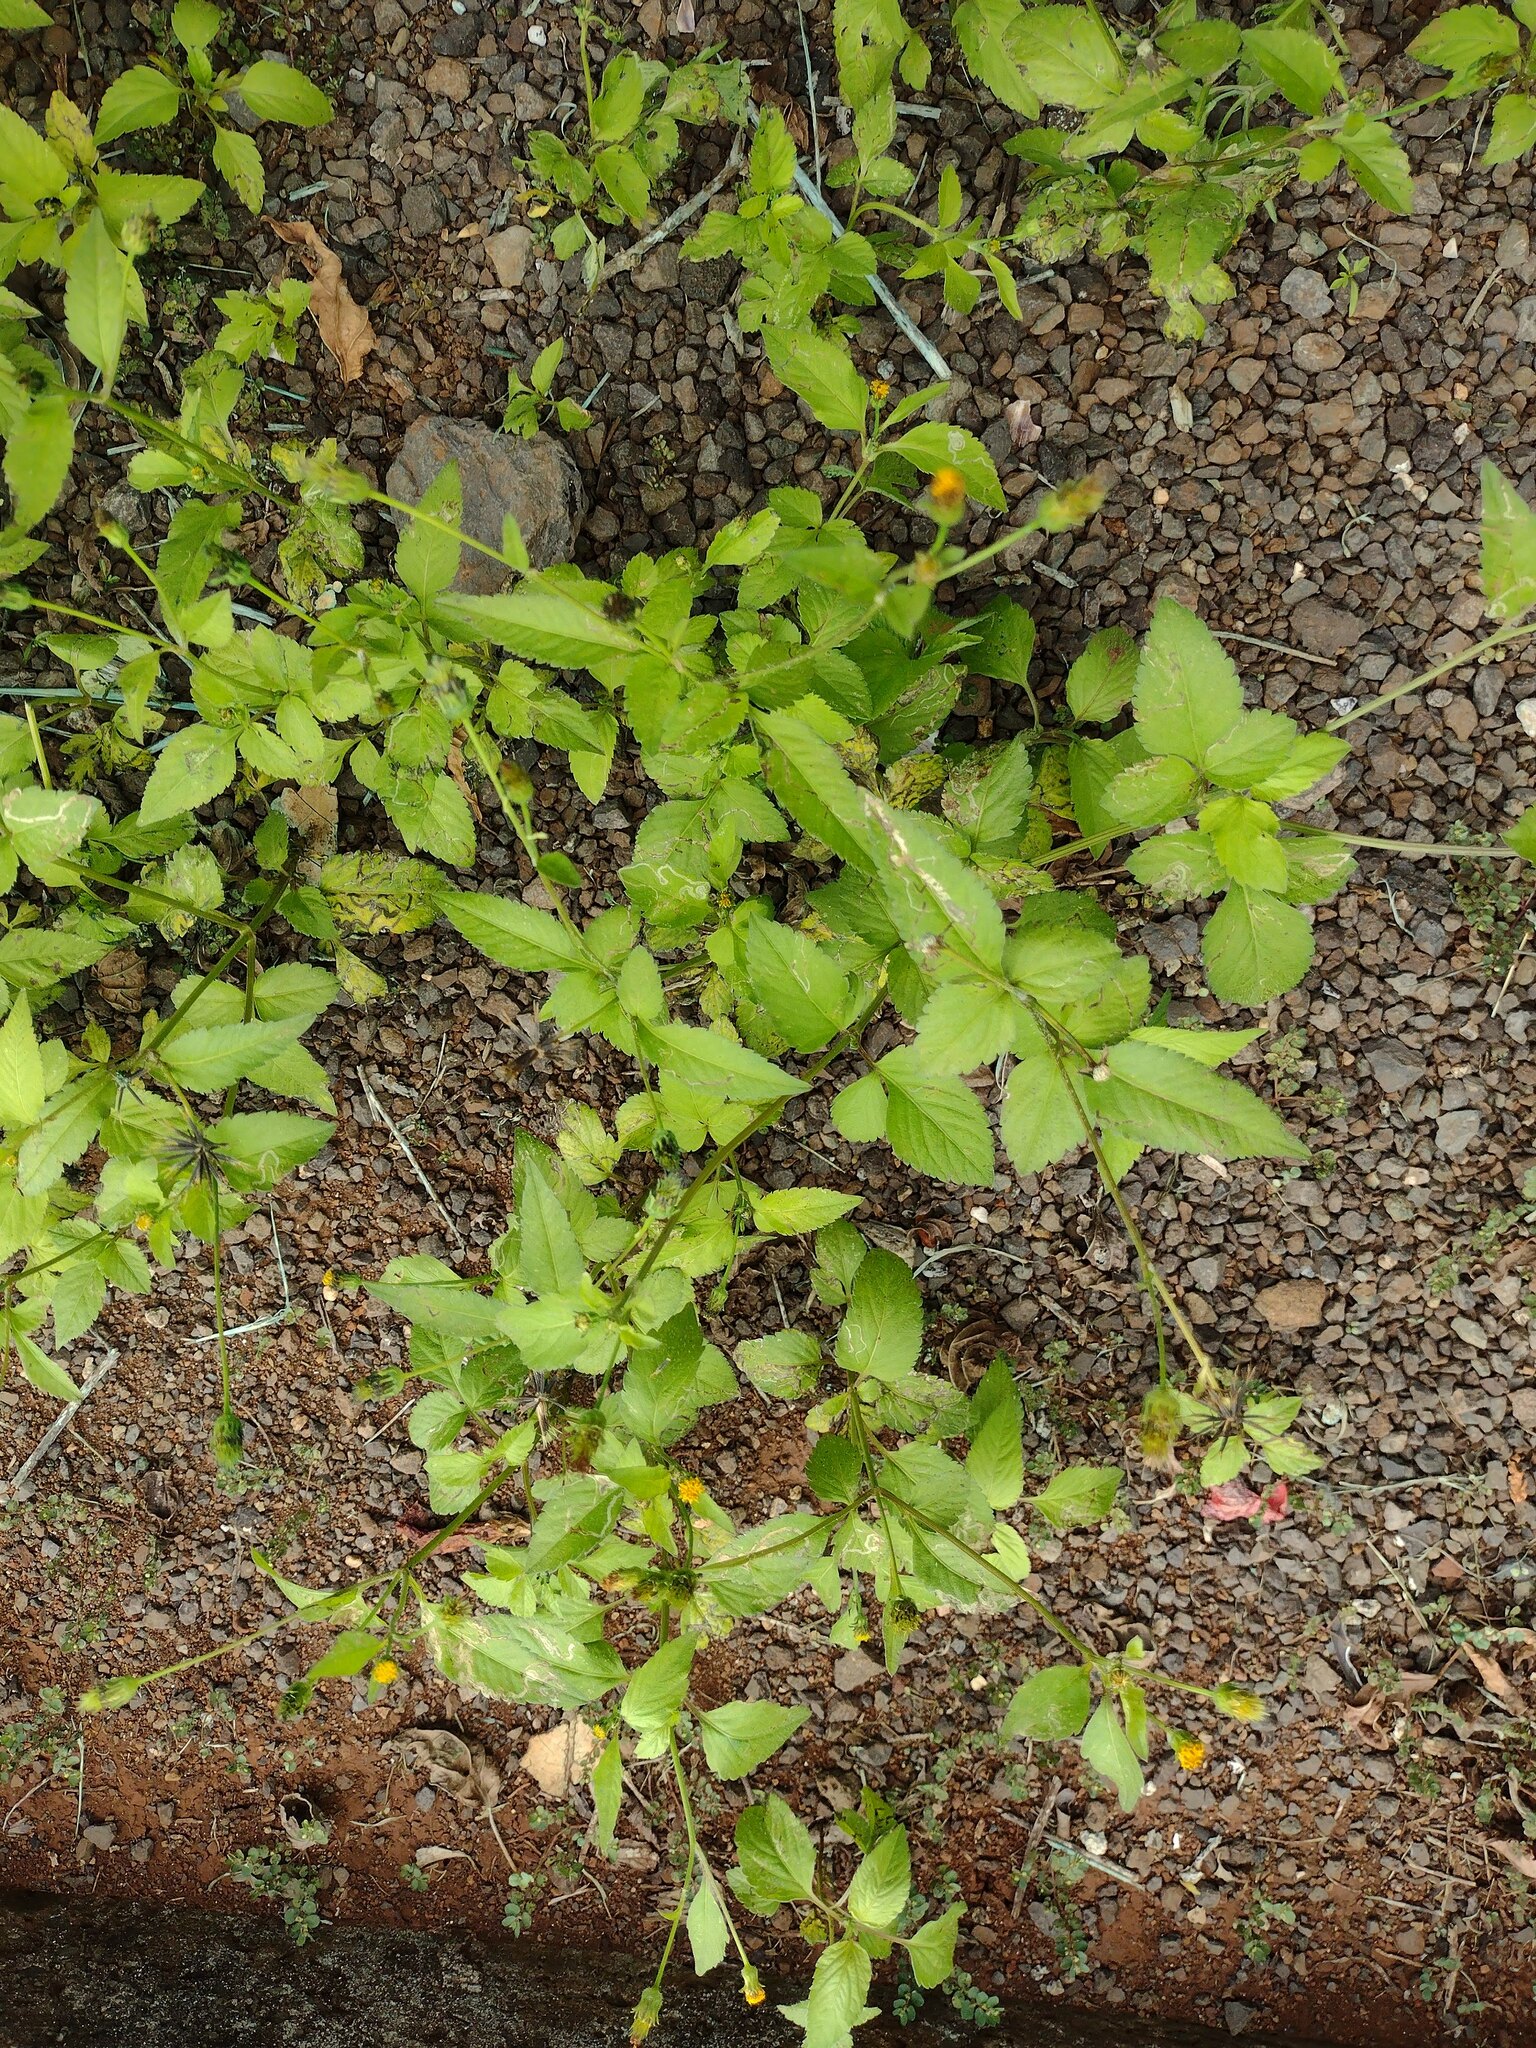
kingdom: Plantae
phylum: Tracheophyta
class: Magnoliopsida
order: Asterales
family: Asteraceae
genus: Bidens
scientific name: Bidens pilosa
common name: Black-jack
